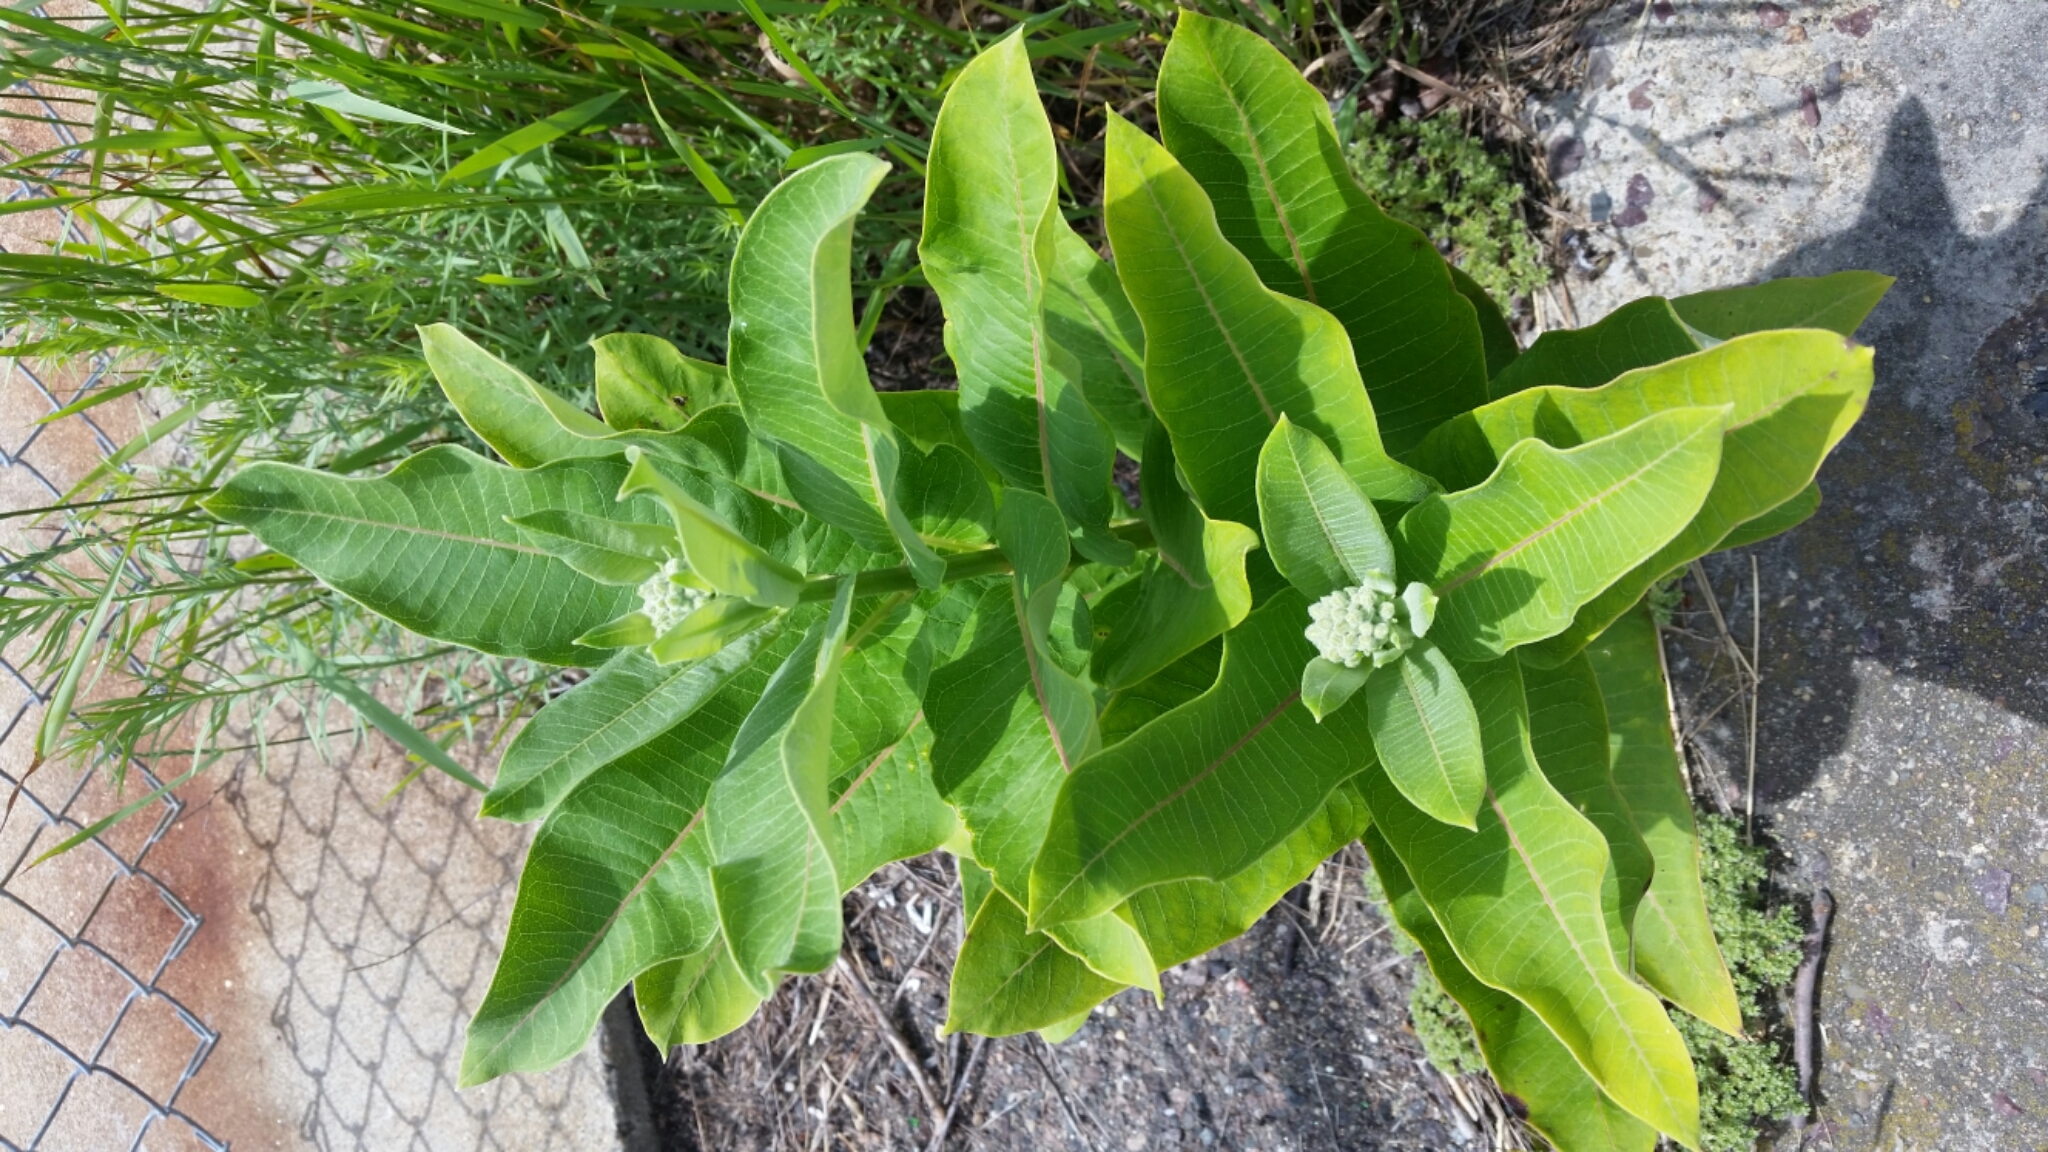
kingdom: Plantae
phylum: Tracheophyta
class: Magnoliopsida
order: Gentianales
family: Apocynaceae
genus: Asclepias
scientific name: Asclepias syriaca
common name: Common milkweed
